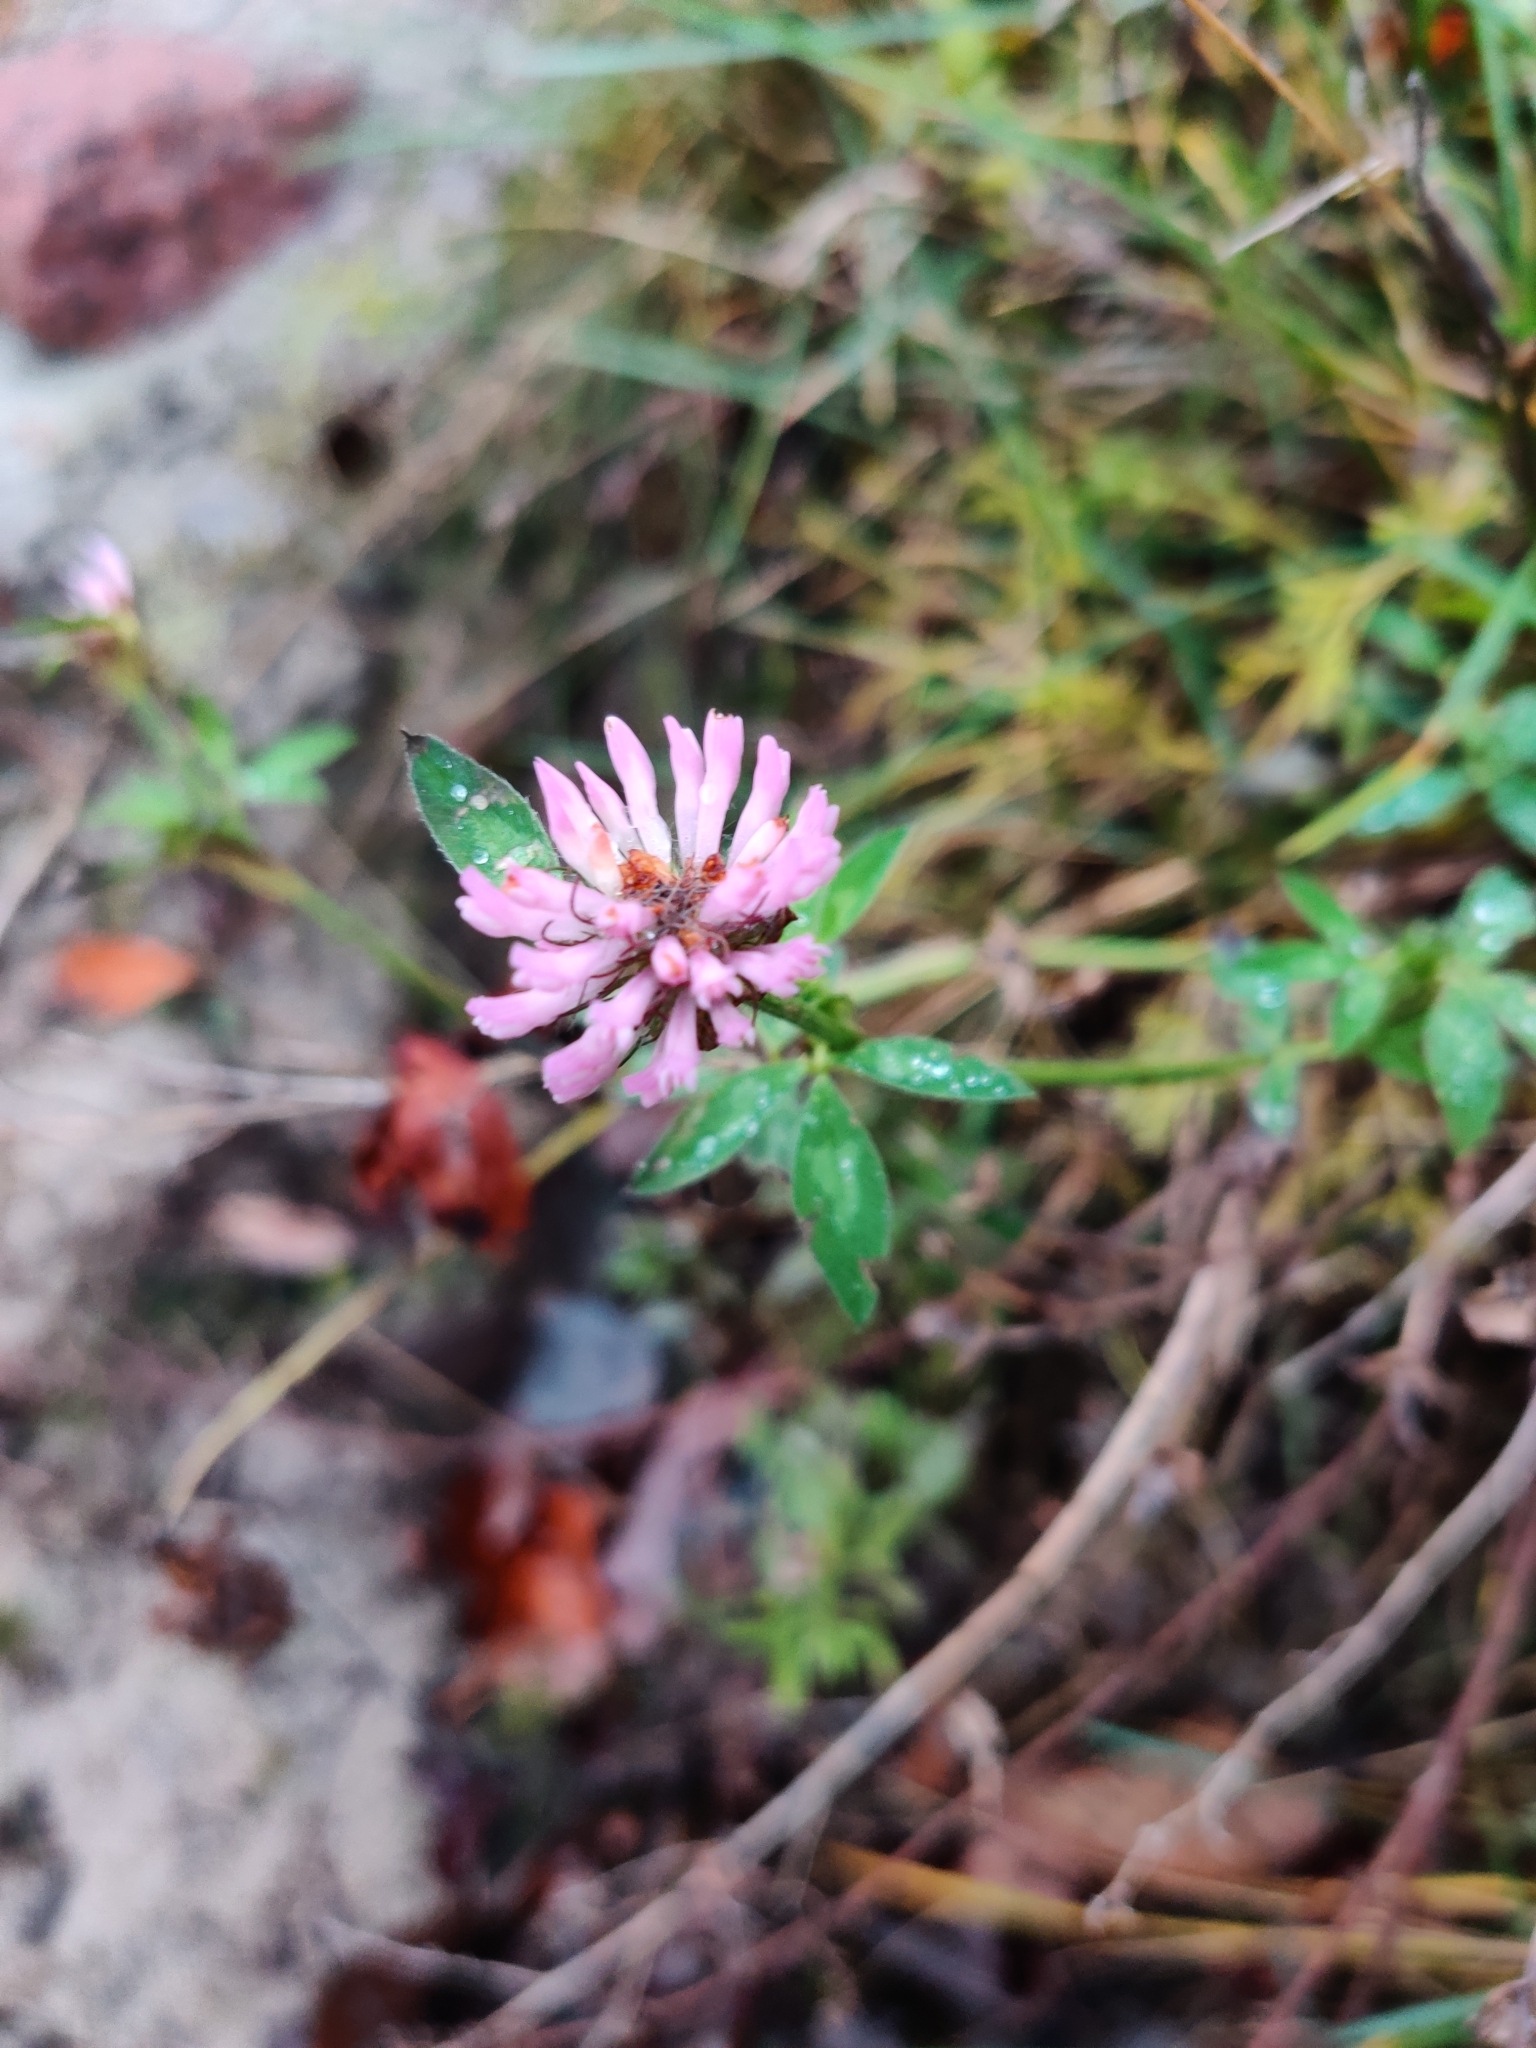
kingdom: Plantae
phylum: Tracheophyta
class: Magnoliopsida
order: Fabales
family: Fabaceae
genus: Trifolium
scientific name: Trifolium pratense
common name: Red clover
